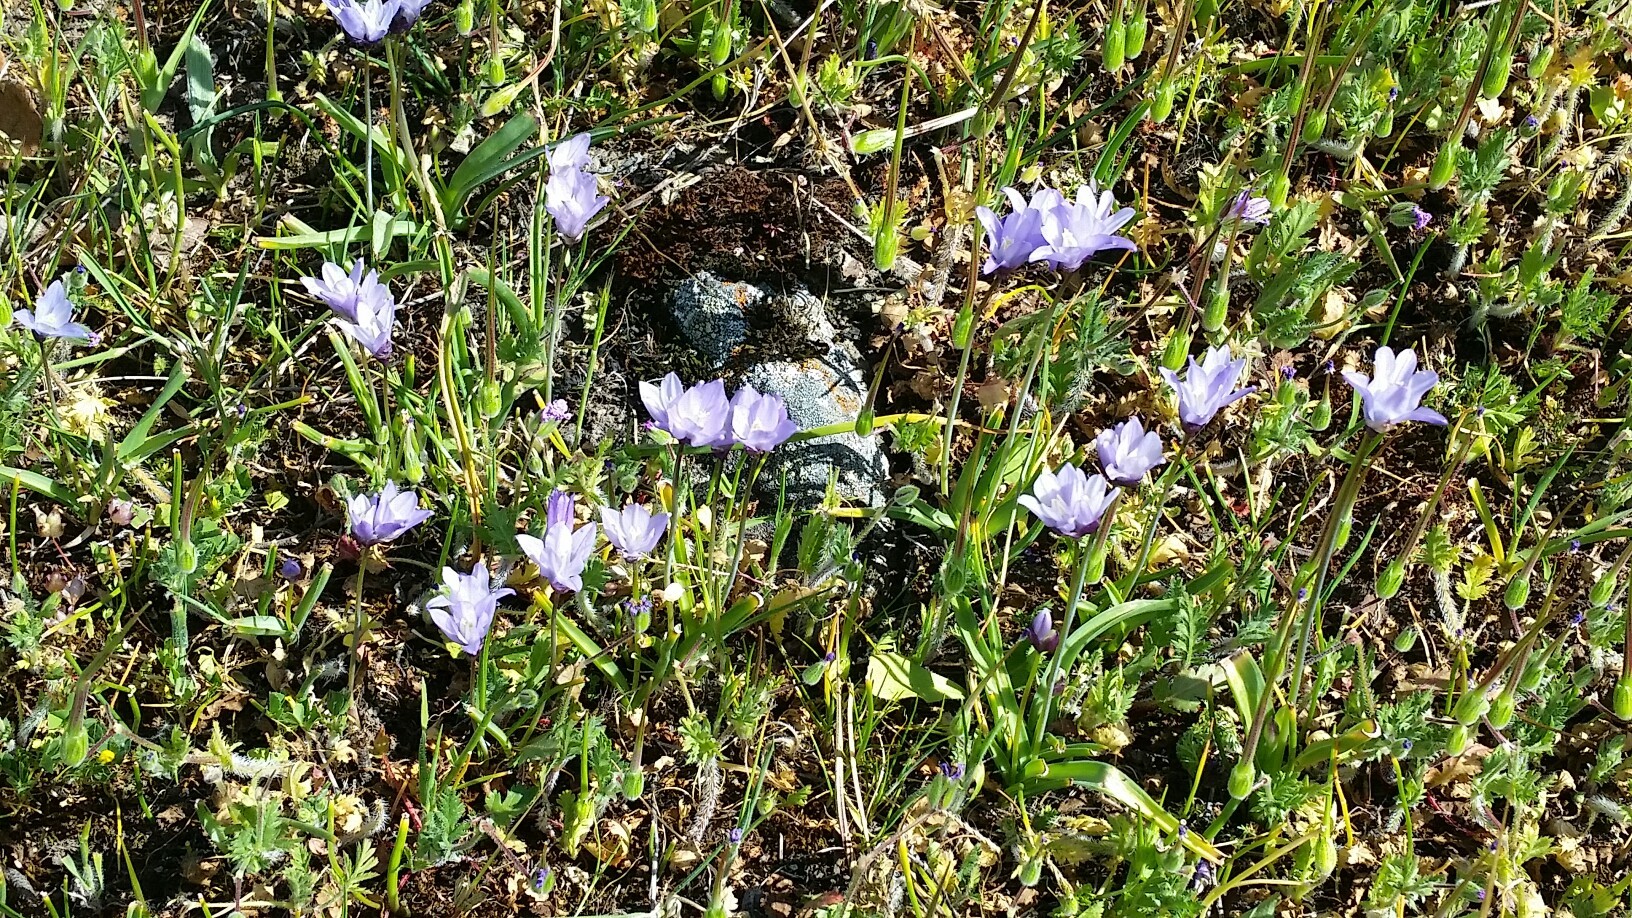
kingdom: Plantae
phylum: Tracheophyta
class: Liliopsida
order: Asparagales
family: Asparagaceae
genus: Dipterostemon
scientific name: Dipterostemon capitatus
